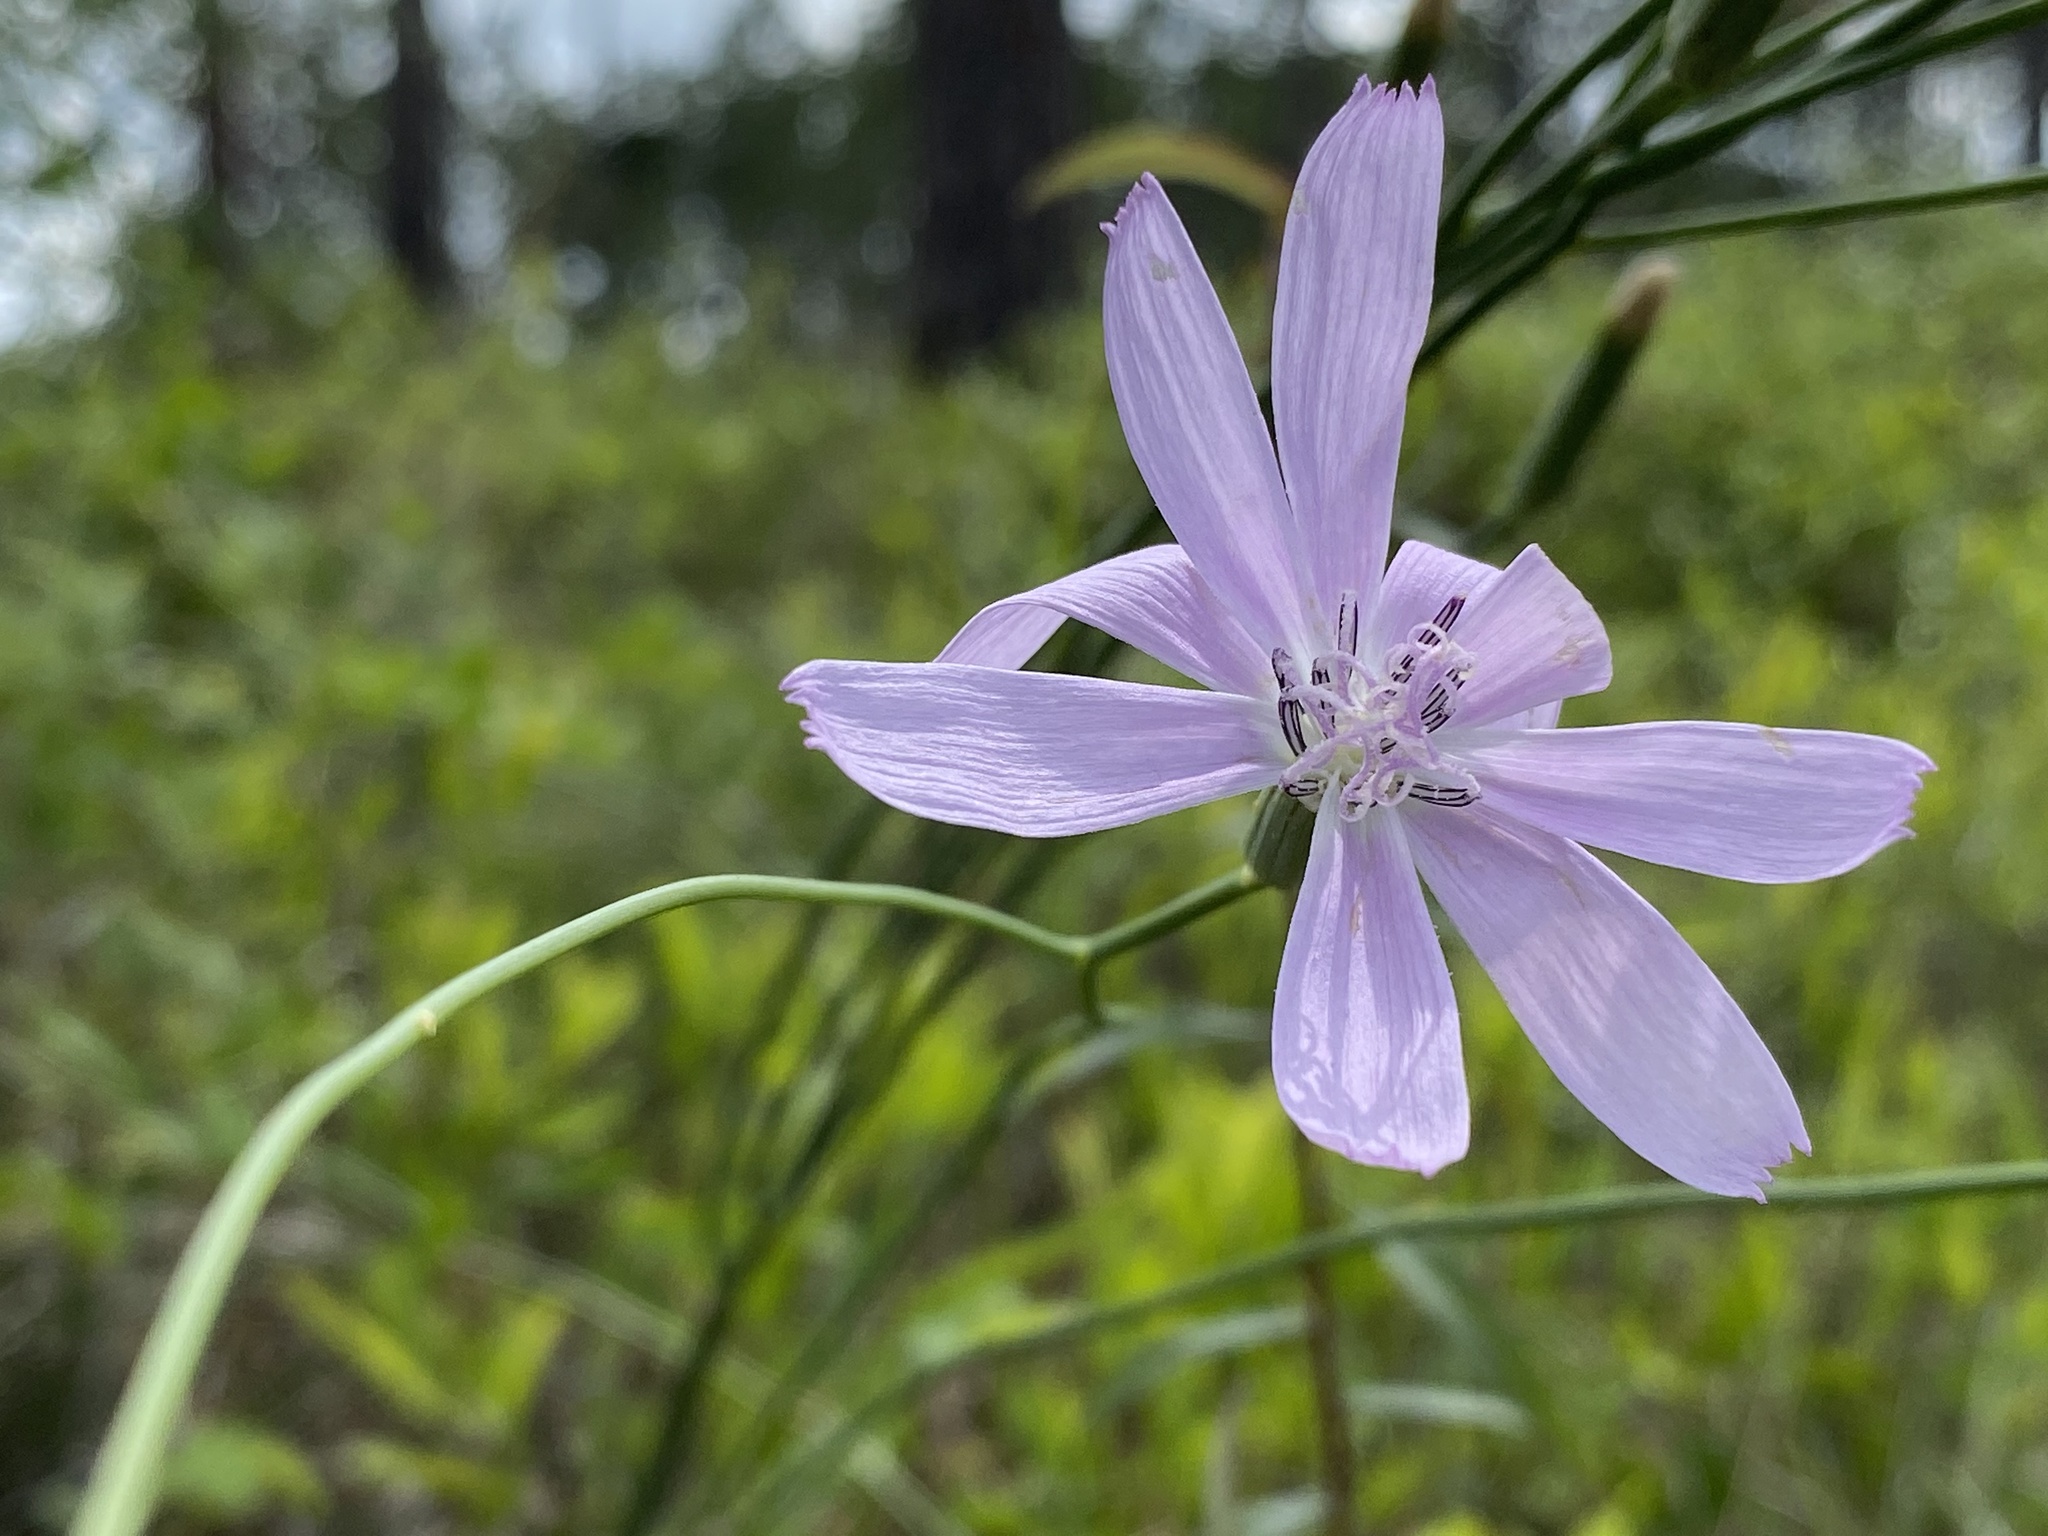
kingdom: Plantae
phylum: Tracheophyta
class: Magnoliopsida
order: Asterales
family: Asteraceae
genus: Lygodesmia
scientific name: Lygodesmia aphylla
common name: Rose-rush
